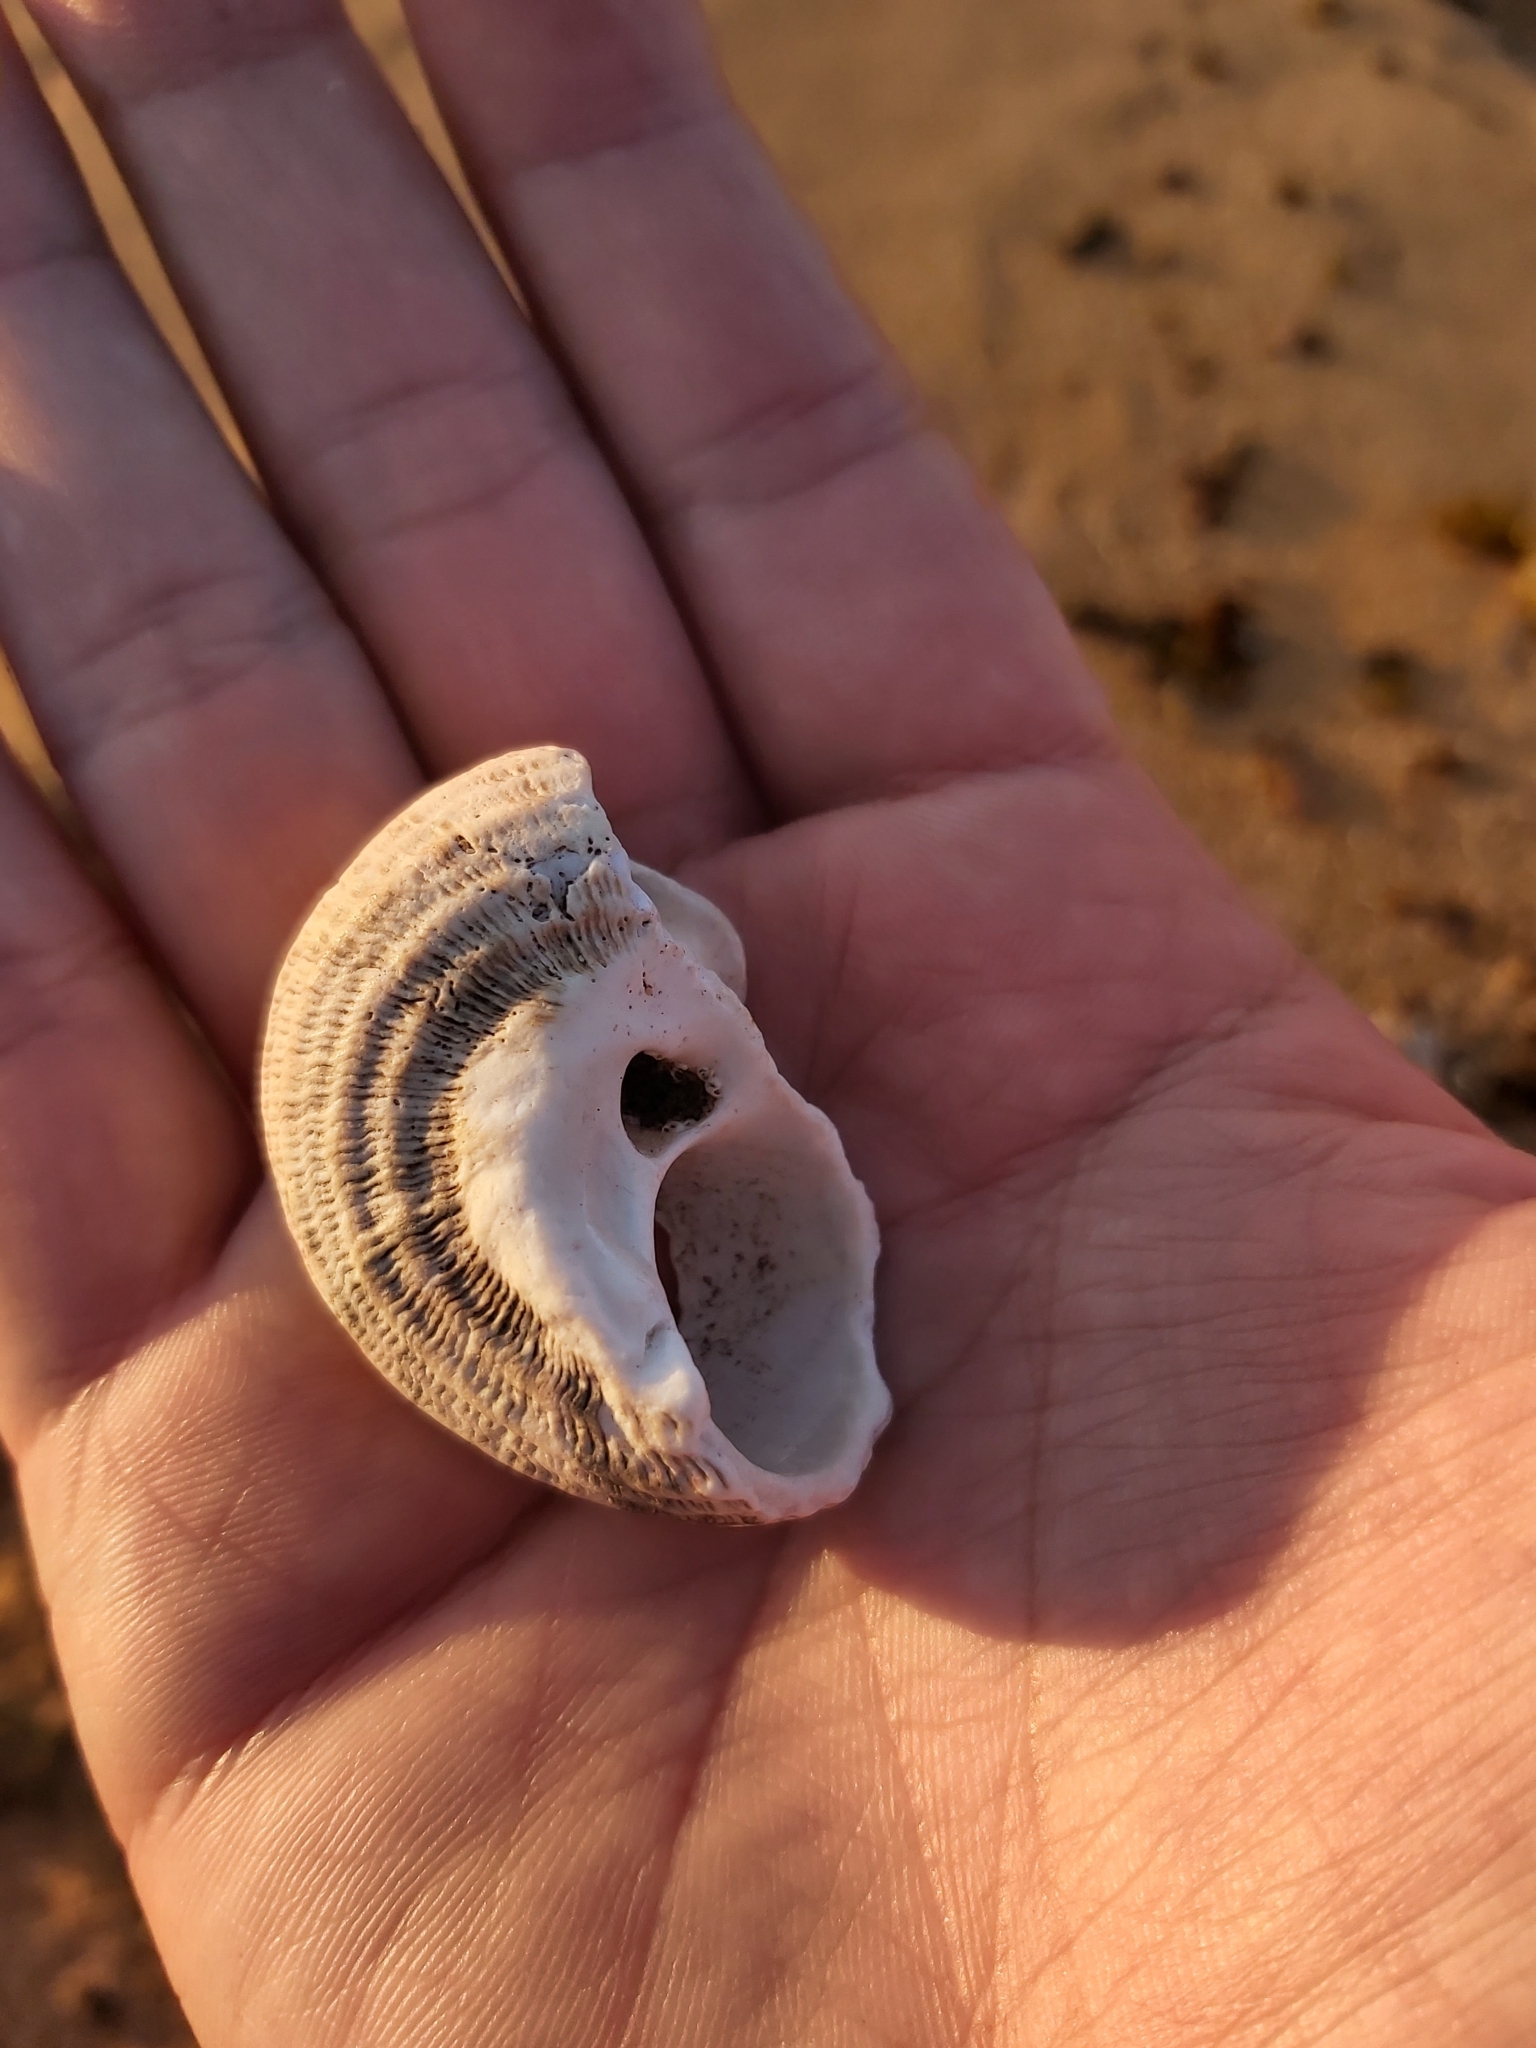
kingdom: Animalia
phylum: Mollusca
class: Gastropoda
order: Trochida
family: Turbinidae
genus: Lunella
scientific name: Lunella torquata
